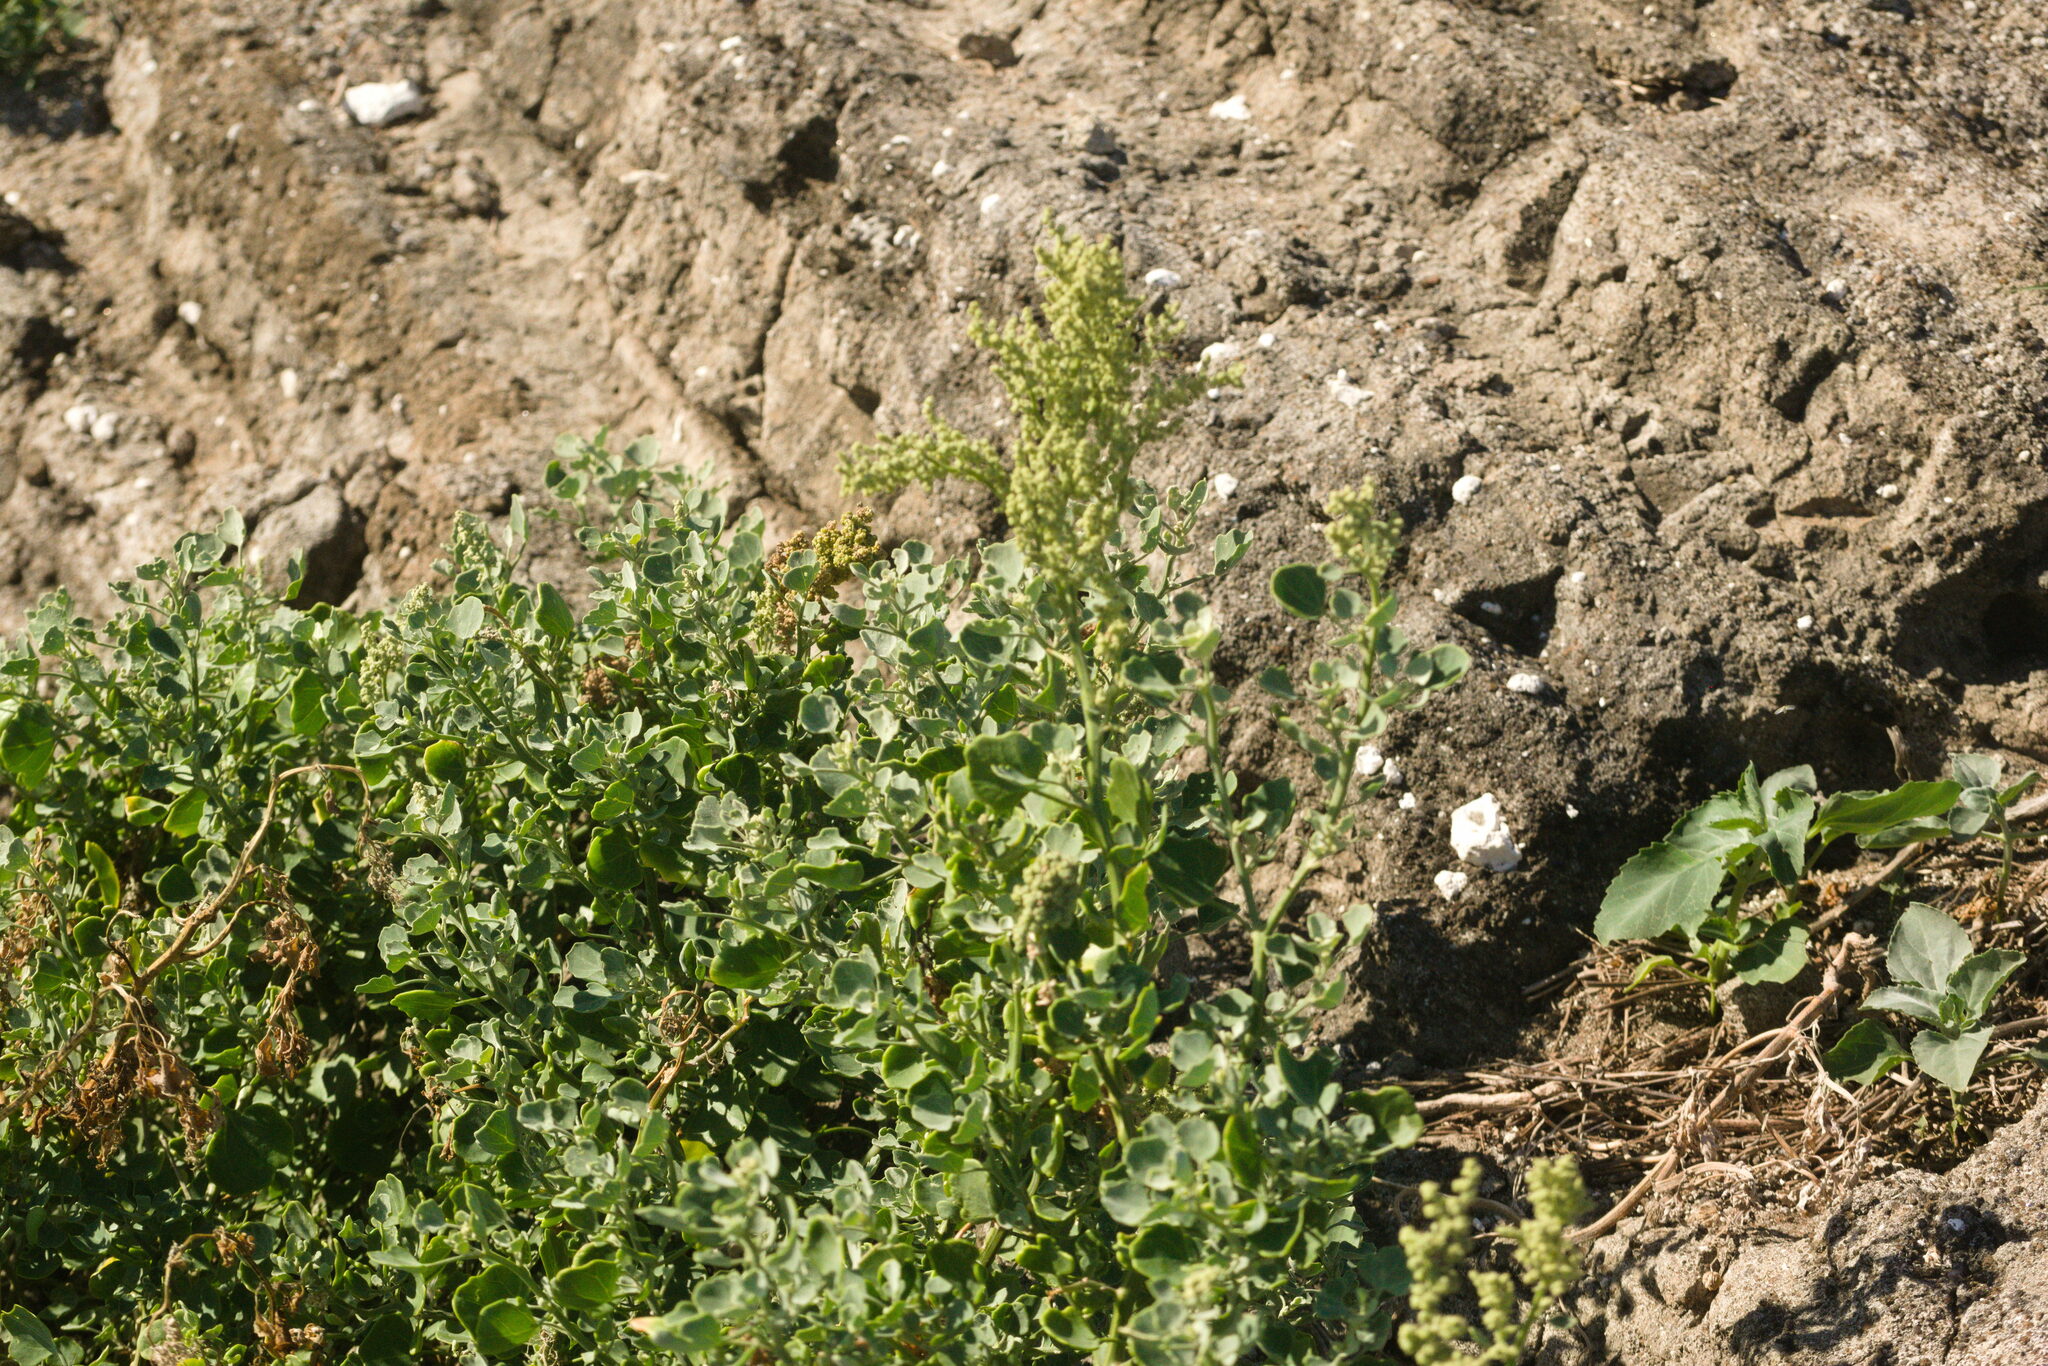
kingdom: Plantae
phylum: Tracheophyta
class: Magnoliopsida
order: Caryophyllales
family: Amaranthaceae
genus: Chenopodium
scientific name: Chenopodium oahuense
